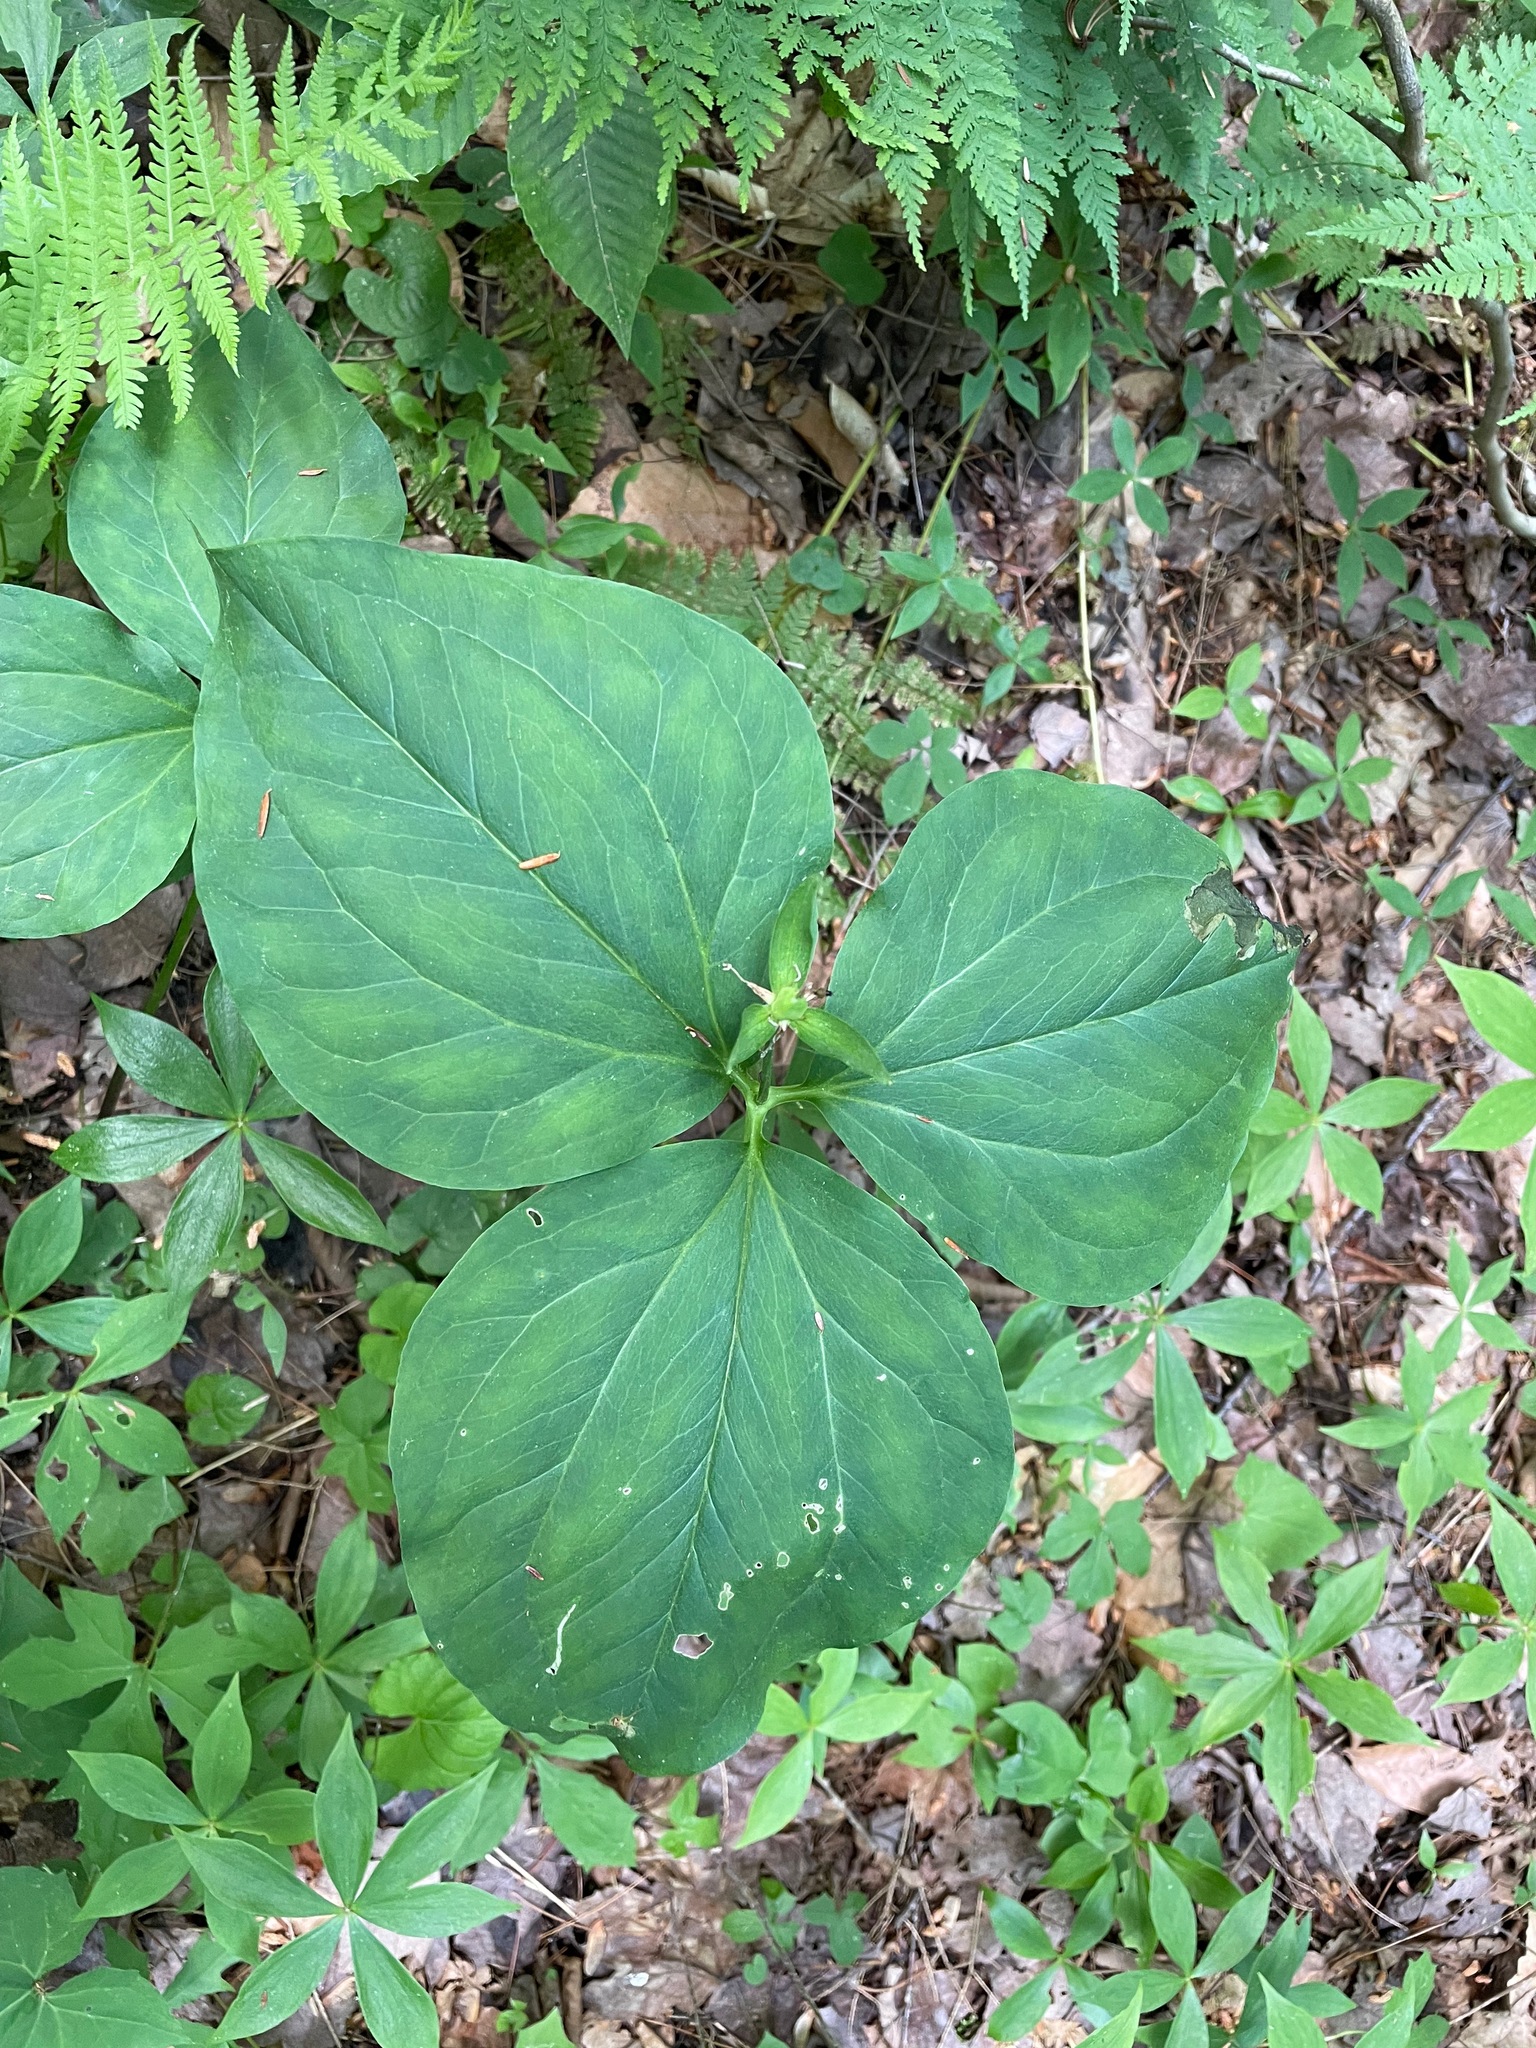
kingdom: Plantae
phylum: Tracheophyta
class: Liliopsida
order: Liliales
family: Melanthiaceae
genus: Trillium
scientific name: Trillium undulatum
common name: Paint trillium
